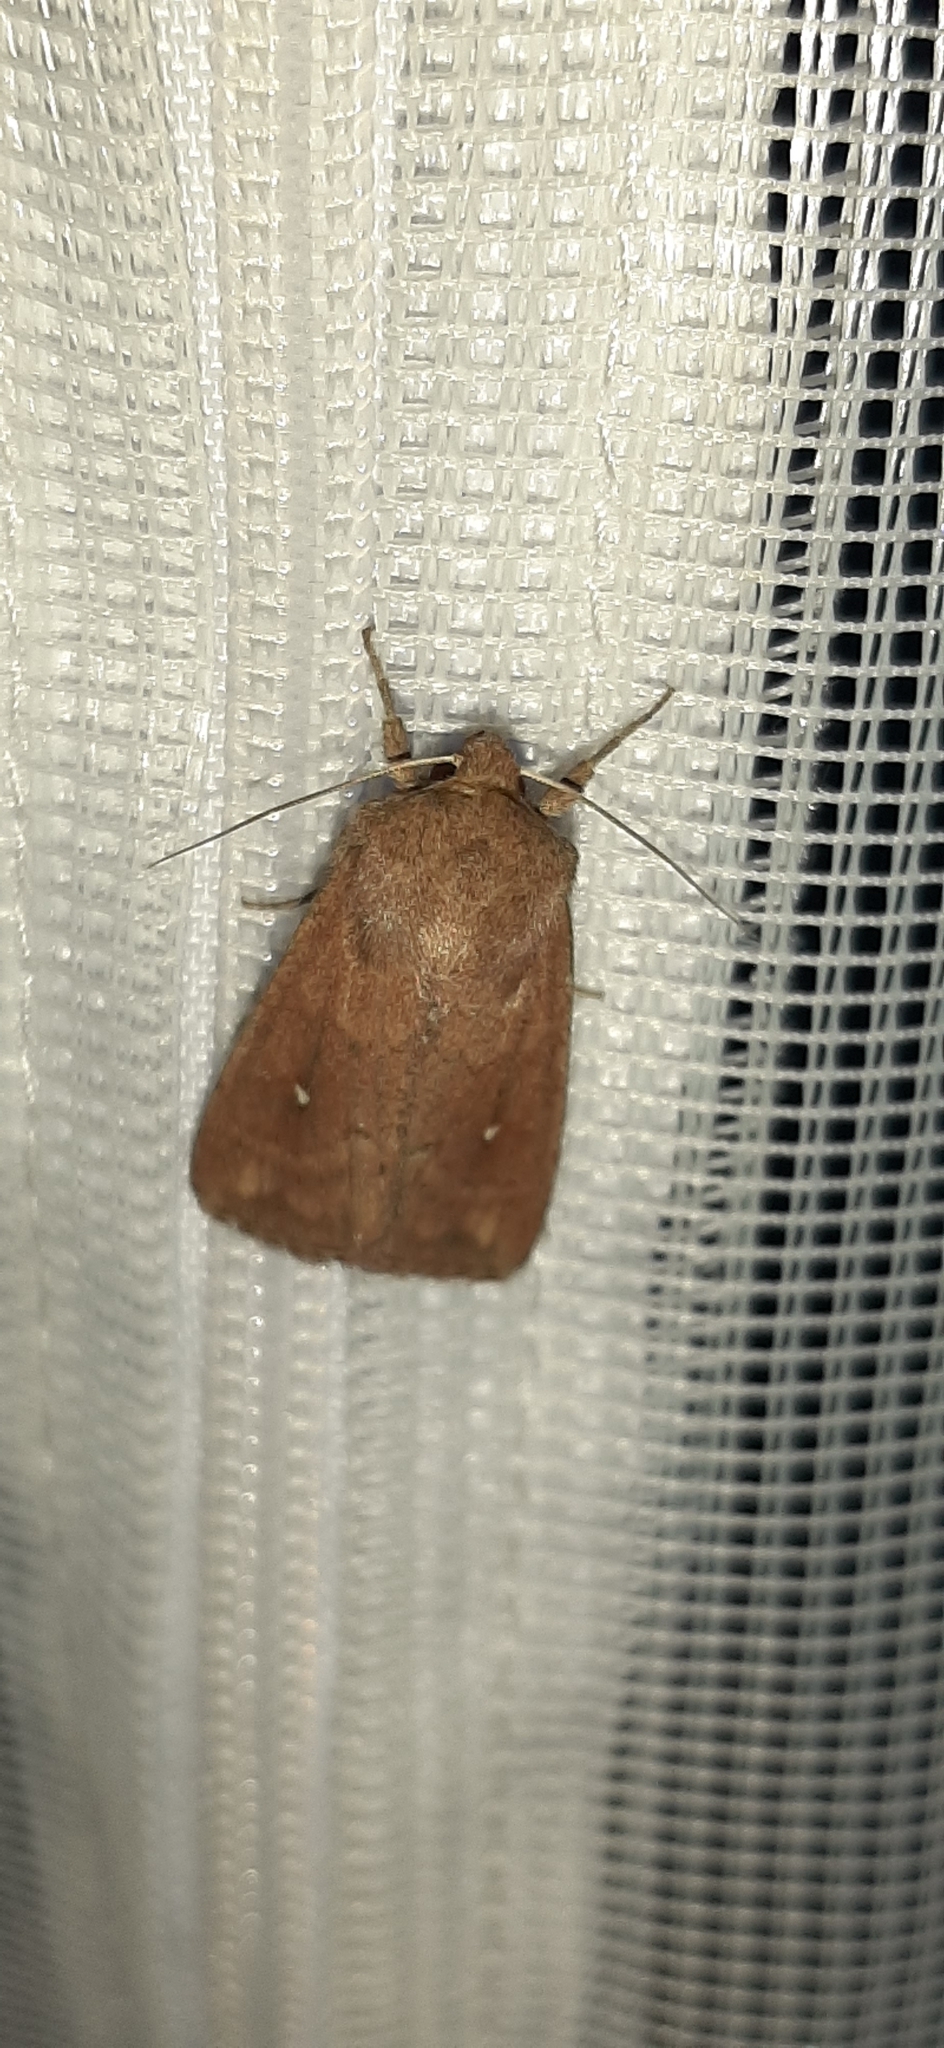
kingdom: Animalia
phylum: Arthropoda
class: Insecta
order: Lepidoptera
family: Noctuidae
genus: Mythimna
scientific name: Mythimna albipuncta
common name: White-point
